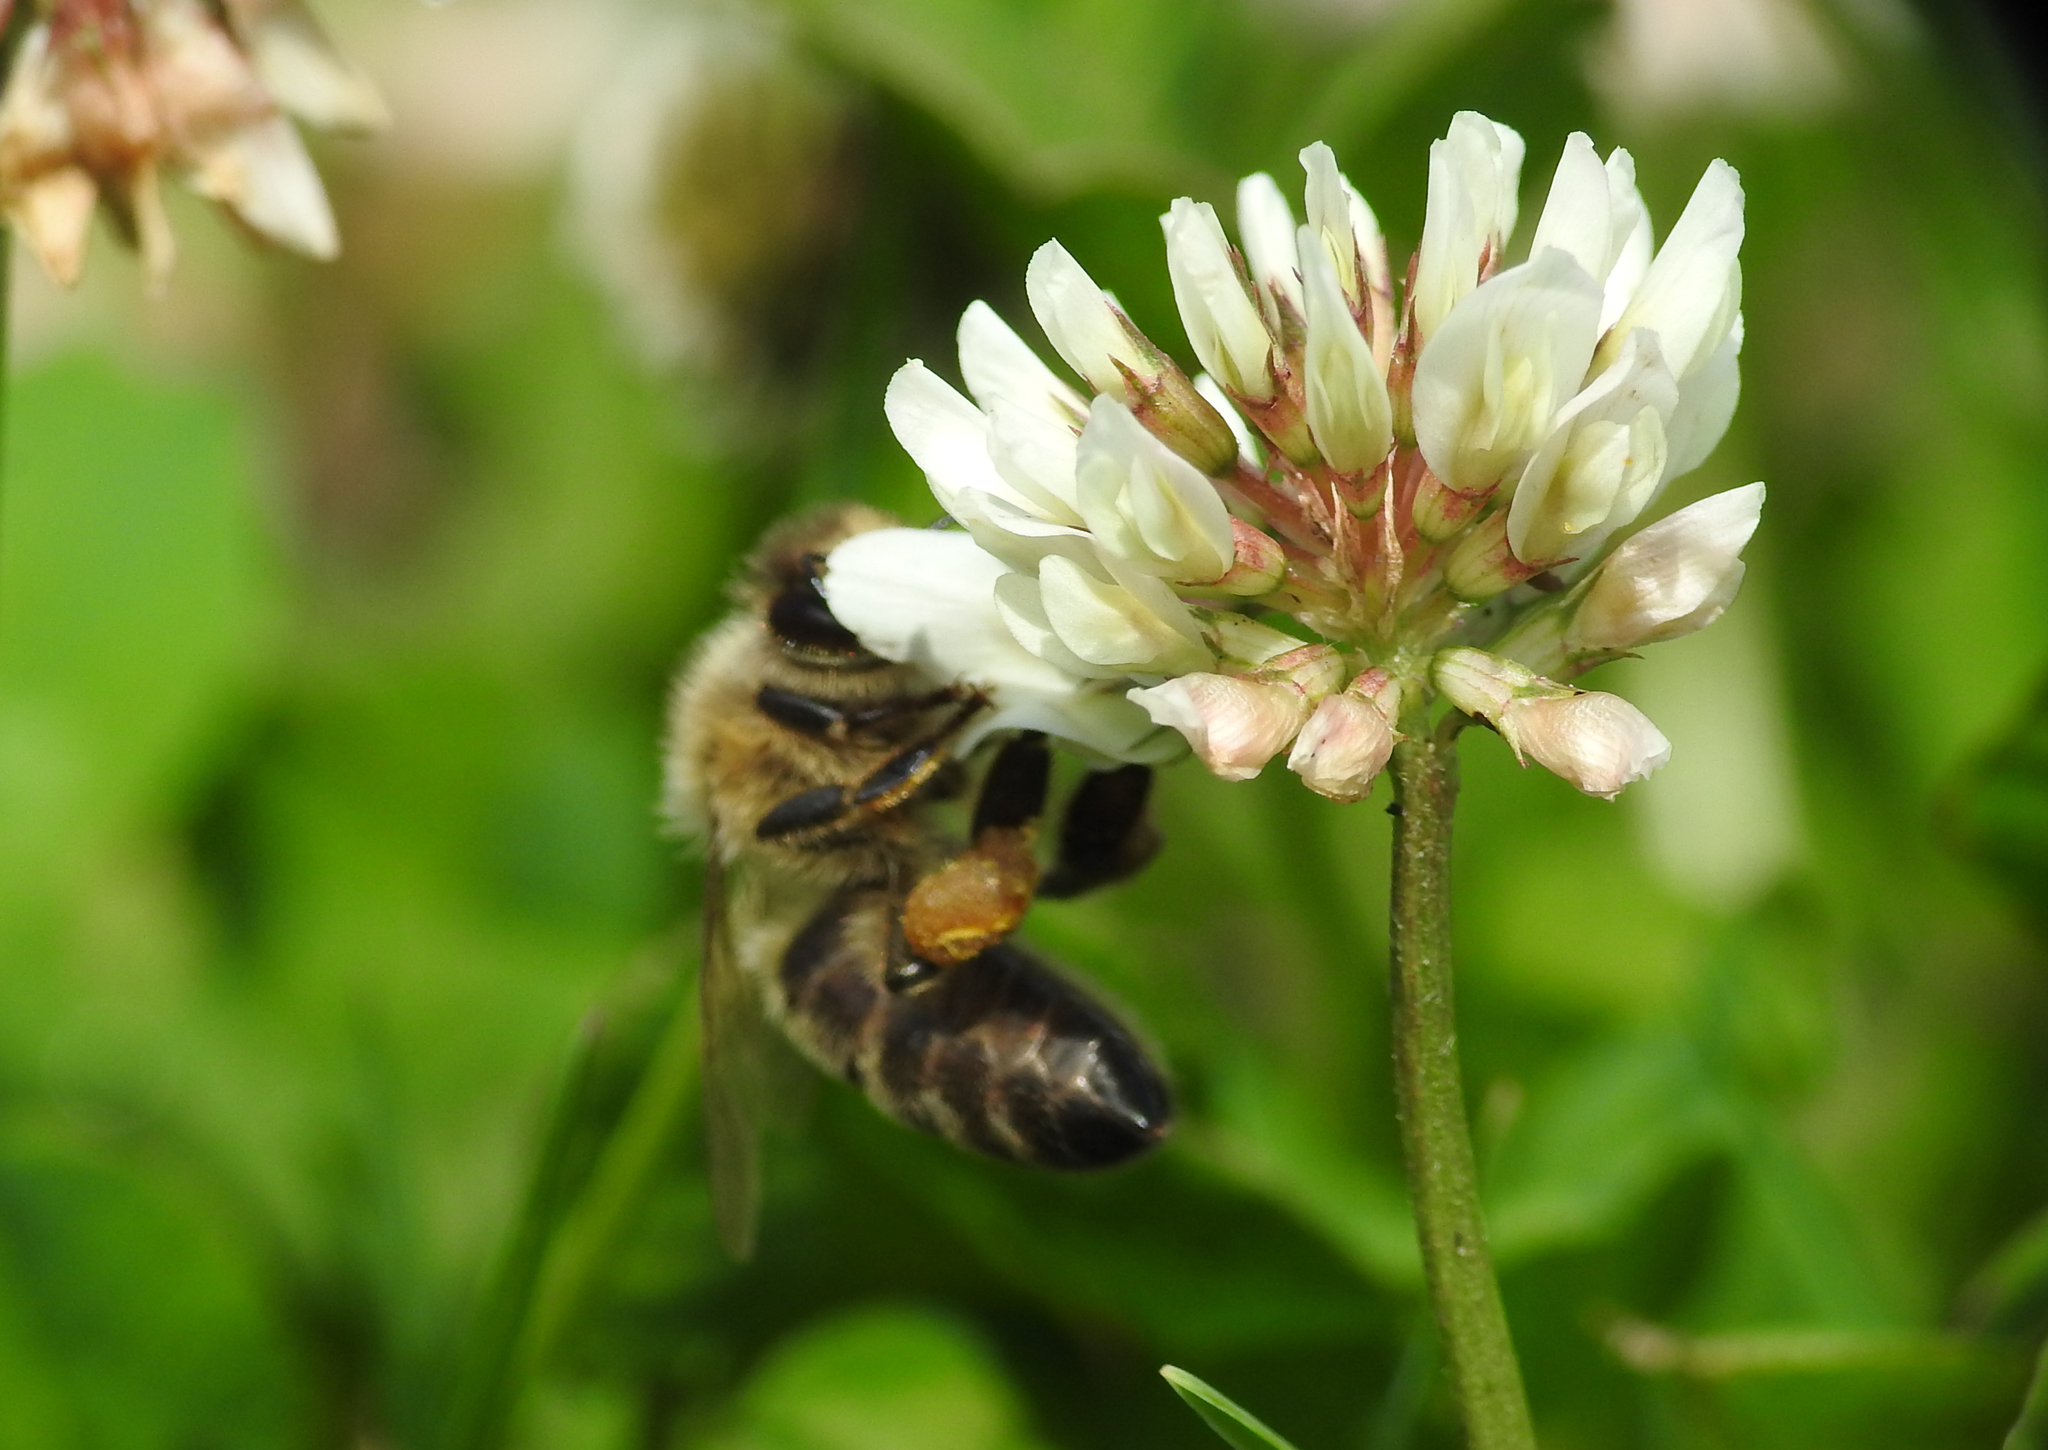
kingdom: Animalia
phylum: Arthropoda
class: Insecta
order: Hymenoptera
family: Apidae
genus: Apis
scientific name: Apis mellifera
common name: Honey bee
